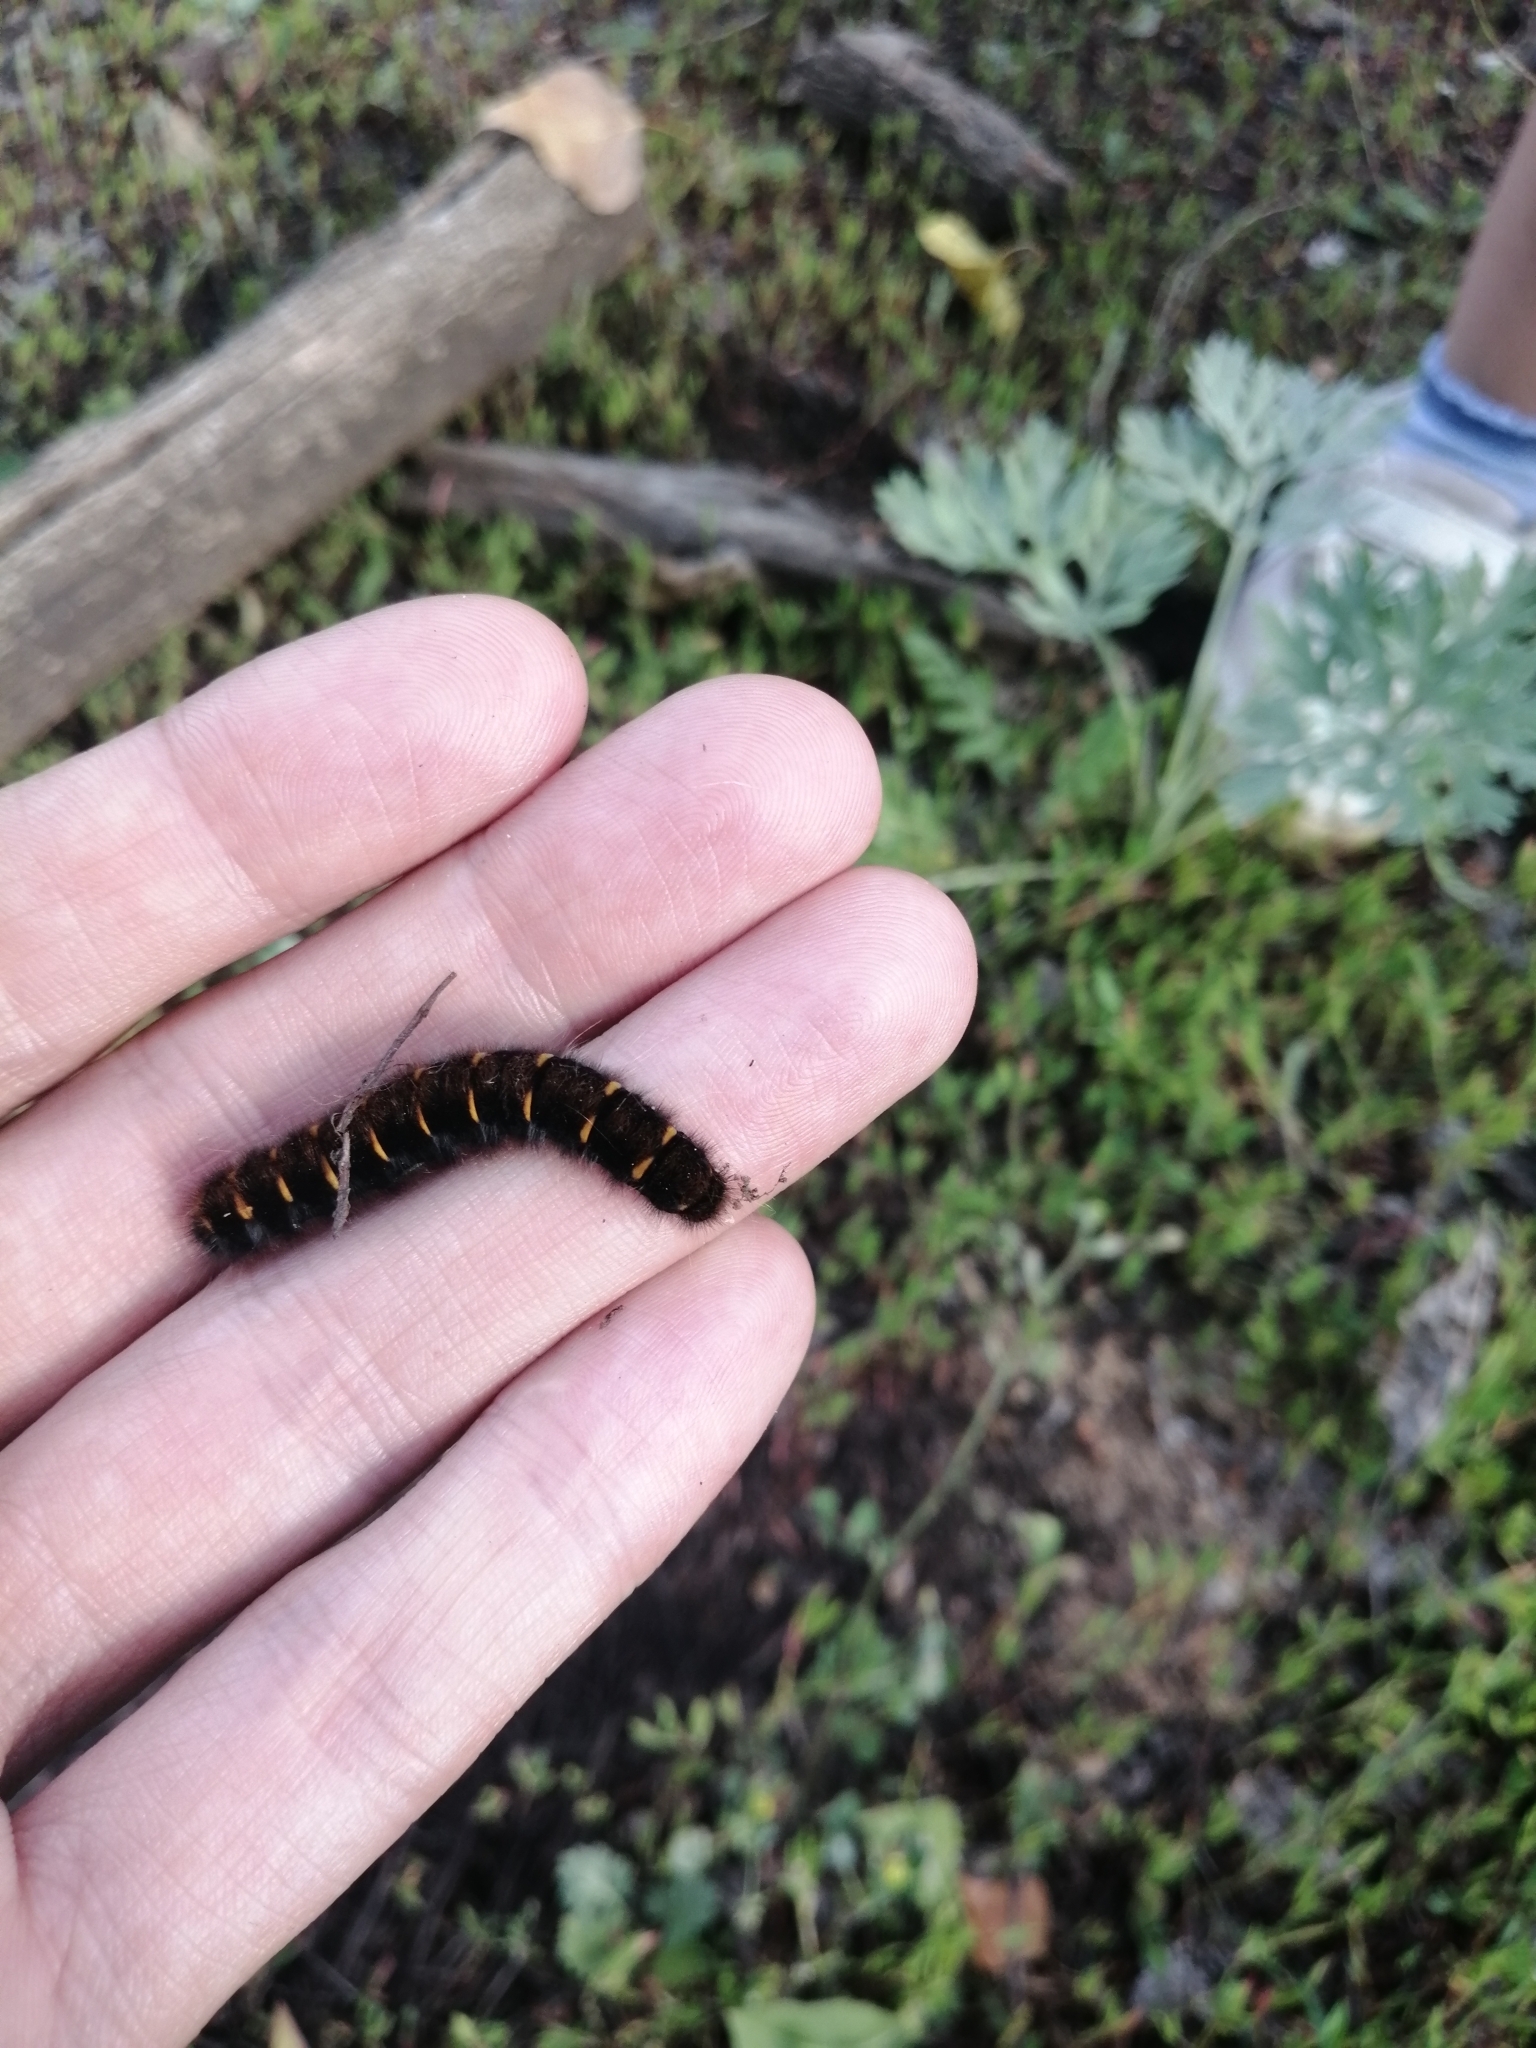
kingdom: Animalia
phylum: Arthropoda
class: Insecta
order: Lepidoptera
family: Lasiocampidae
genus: Macrothylacia
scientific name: Macrothylacia rubi
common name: Fox moth
